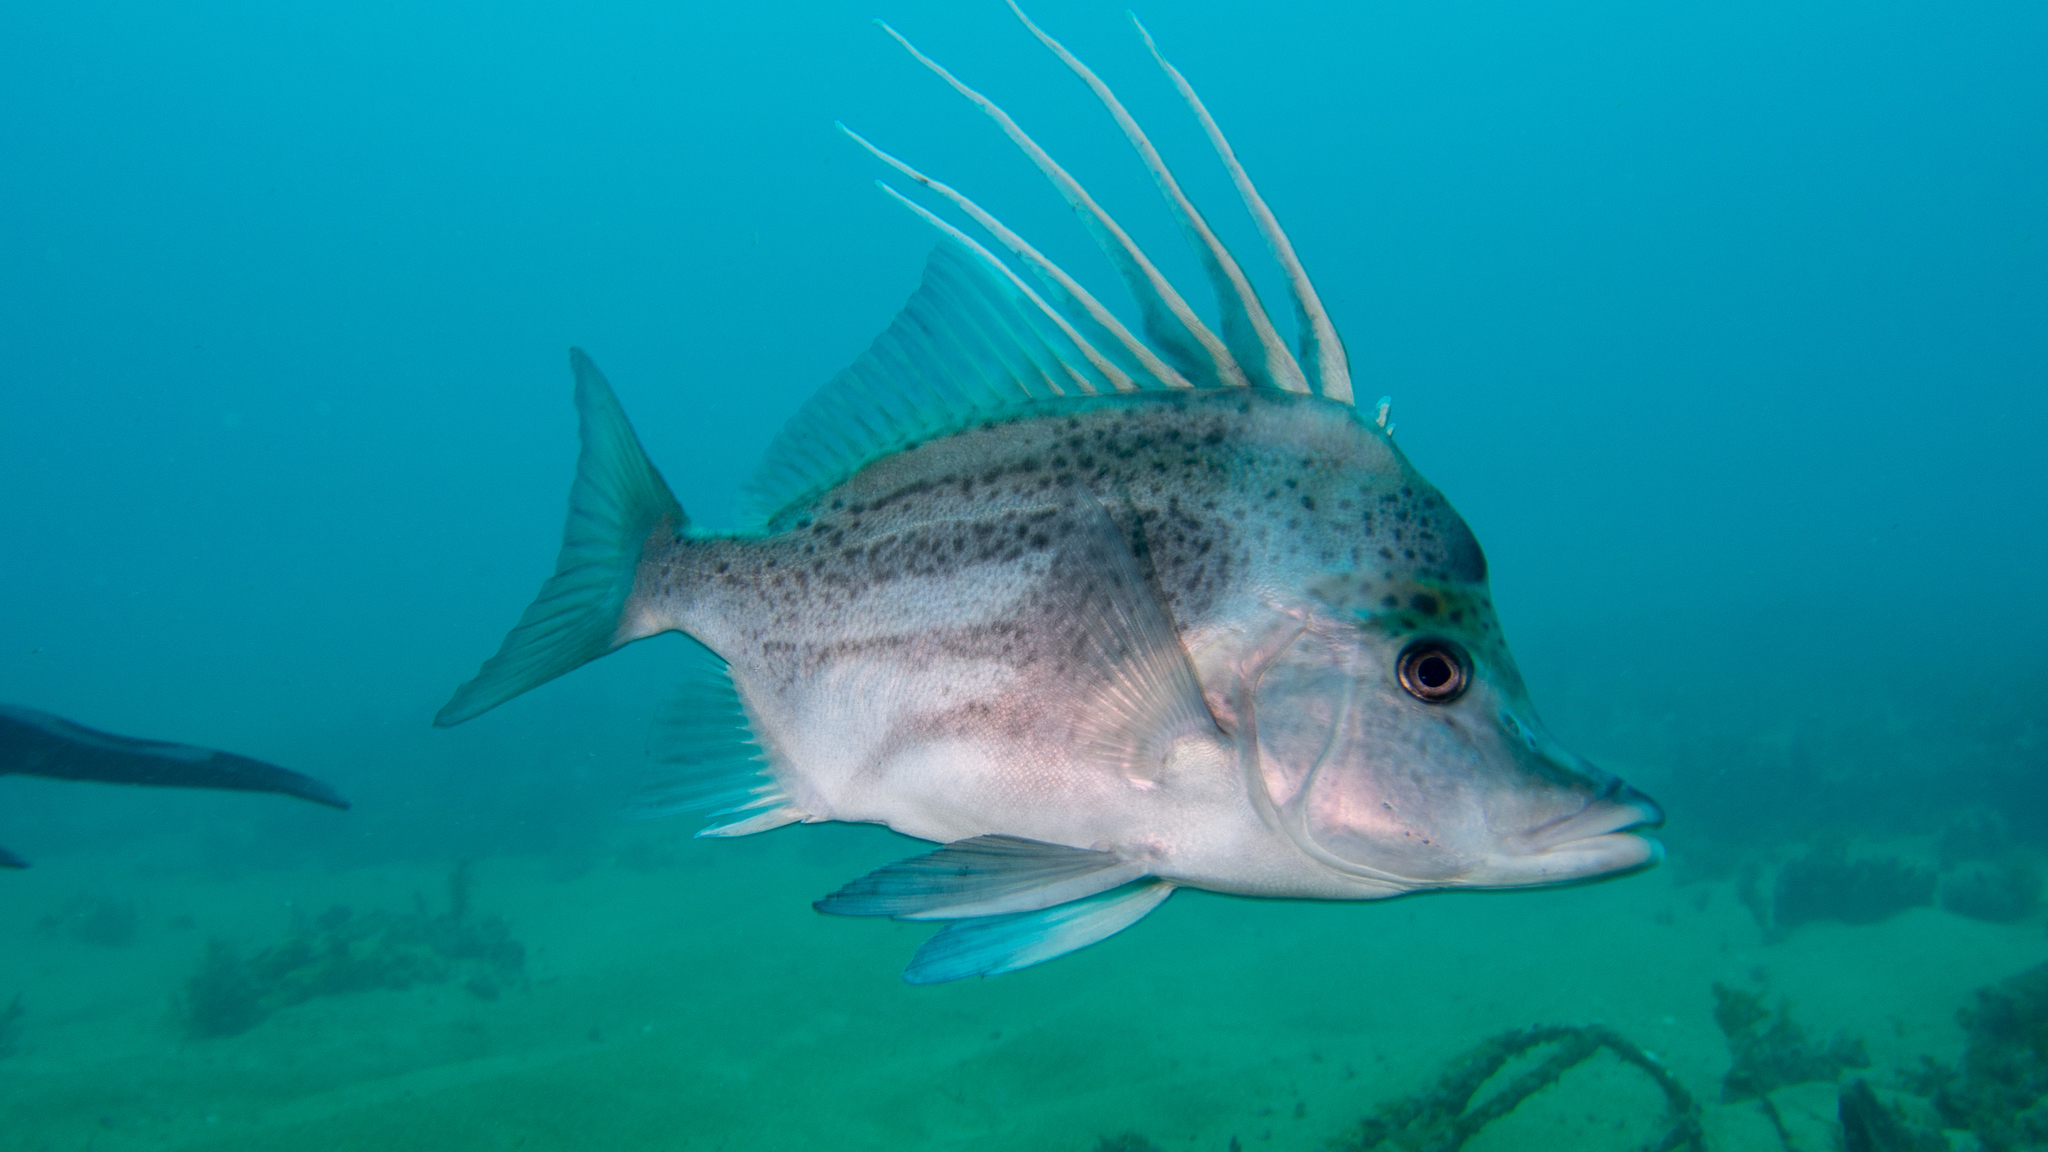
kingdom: Animalia
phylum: Chordata
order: Perciformes
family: Pentacerotidae
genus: Paristiopterus
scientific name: Paristiopterus gallipavo
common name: Yellowspotted boarfish
